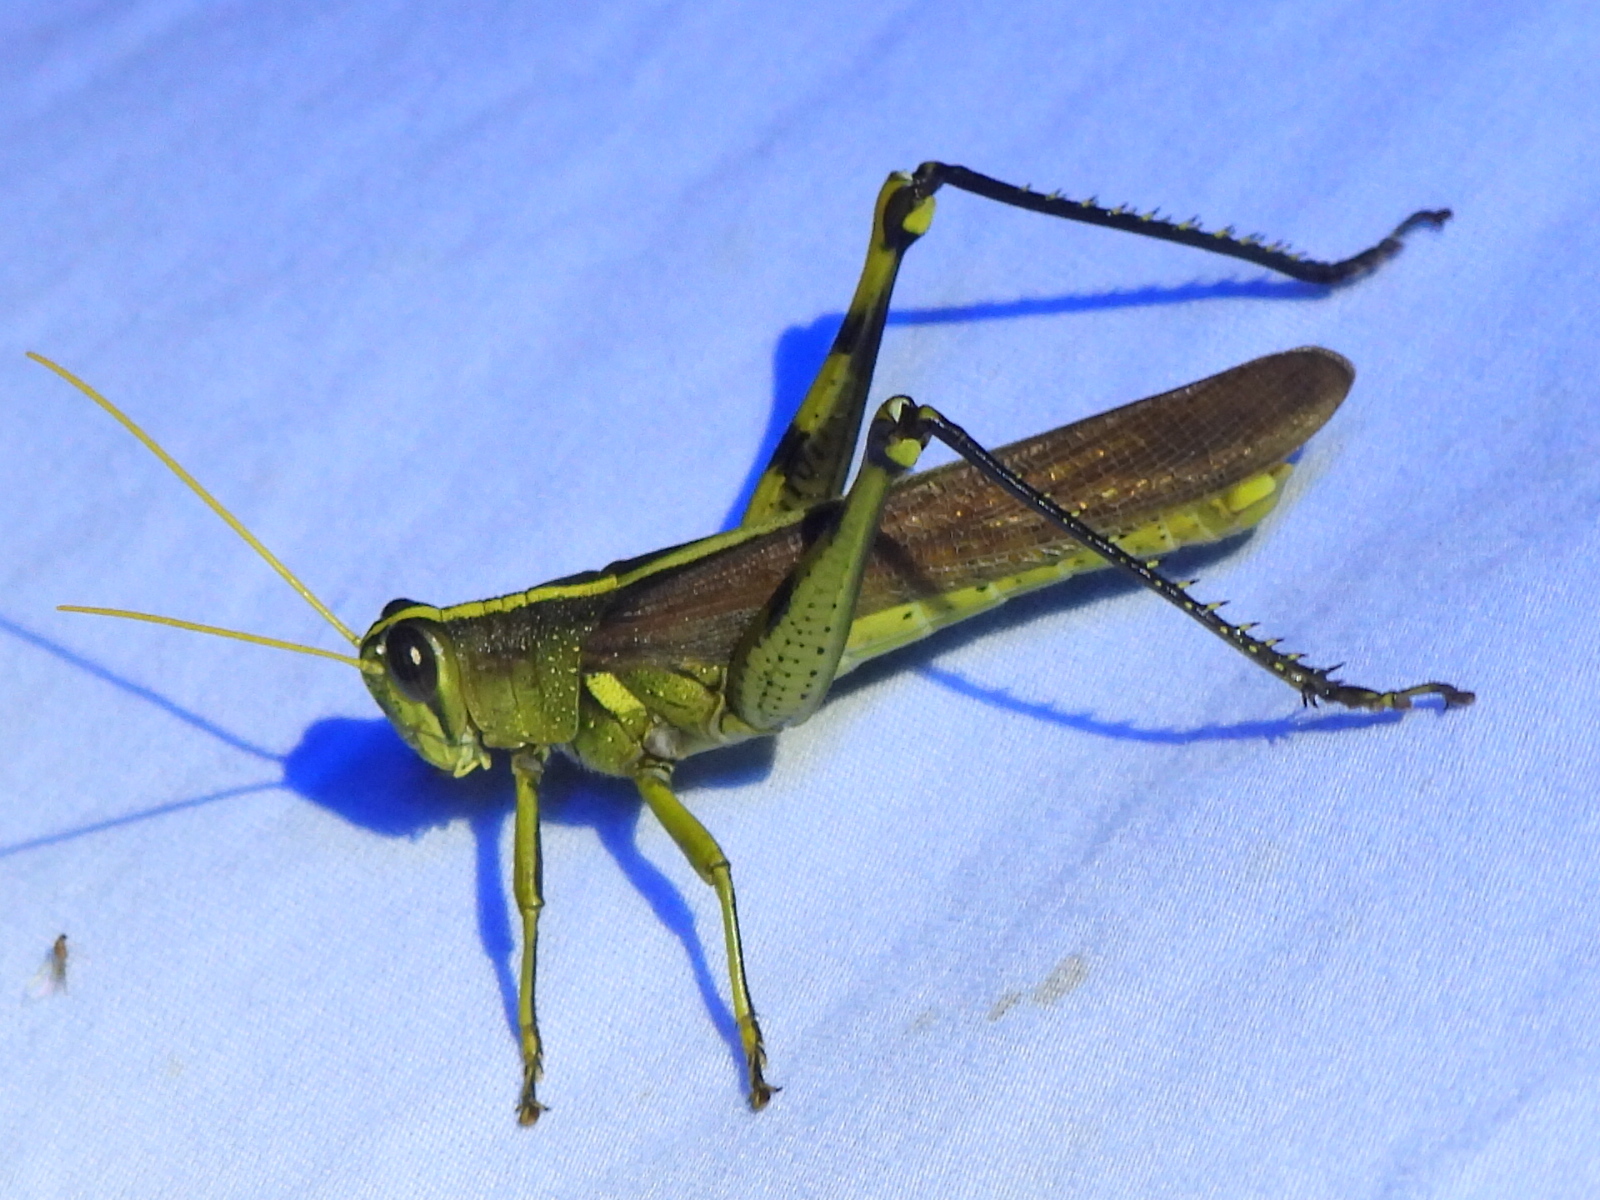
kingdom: Animalia
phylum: Arthropoda
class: Insecta
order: Orthoptera
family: Acrididae
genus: Schistocerca
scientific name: Schistocerca obscura
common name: Obscure bird grasshopper
